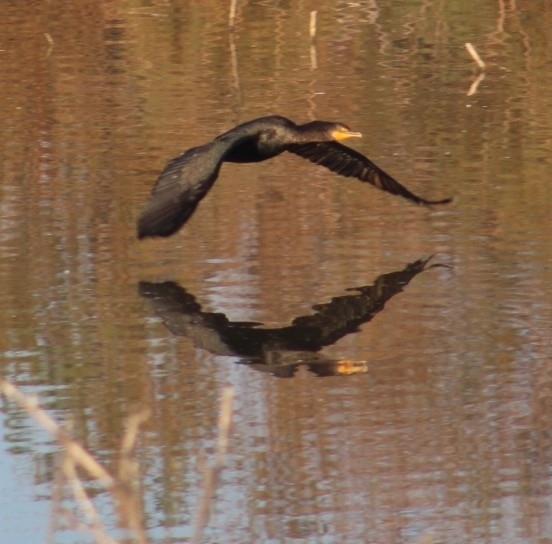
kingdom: Animalia
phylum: Chordata
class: Aves
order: Suliformes
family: Phalacrocoracidae
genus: Phalacrocorax
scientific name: Phalacrocorax auritus
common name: Double-crested cormorant
